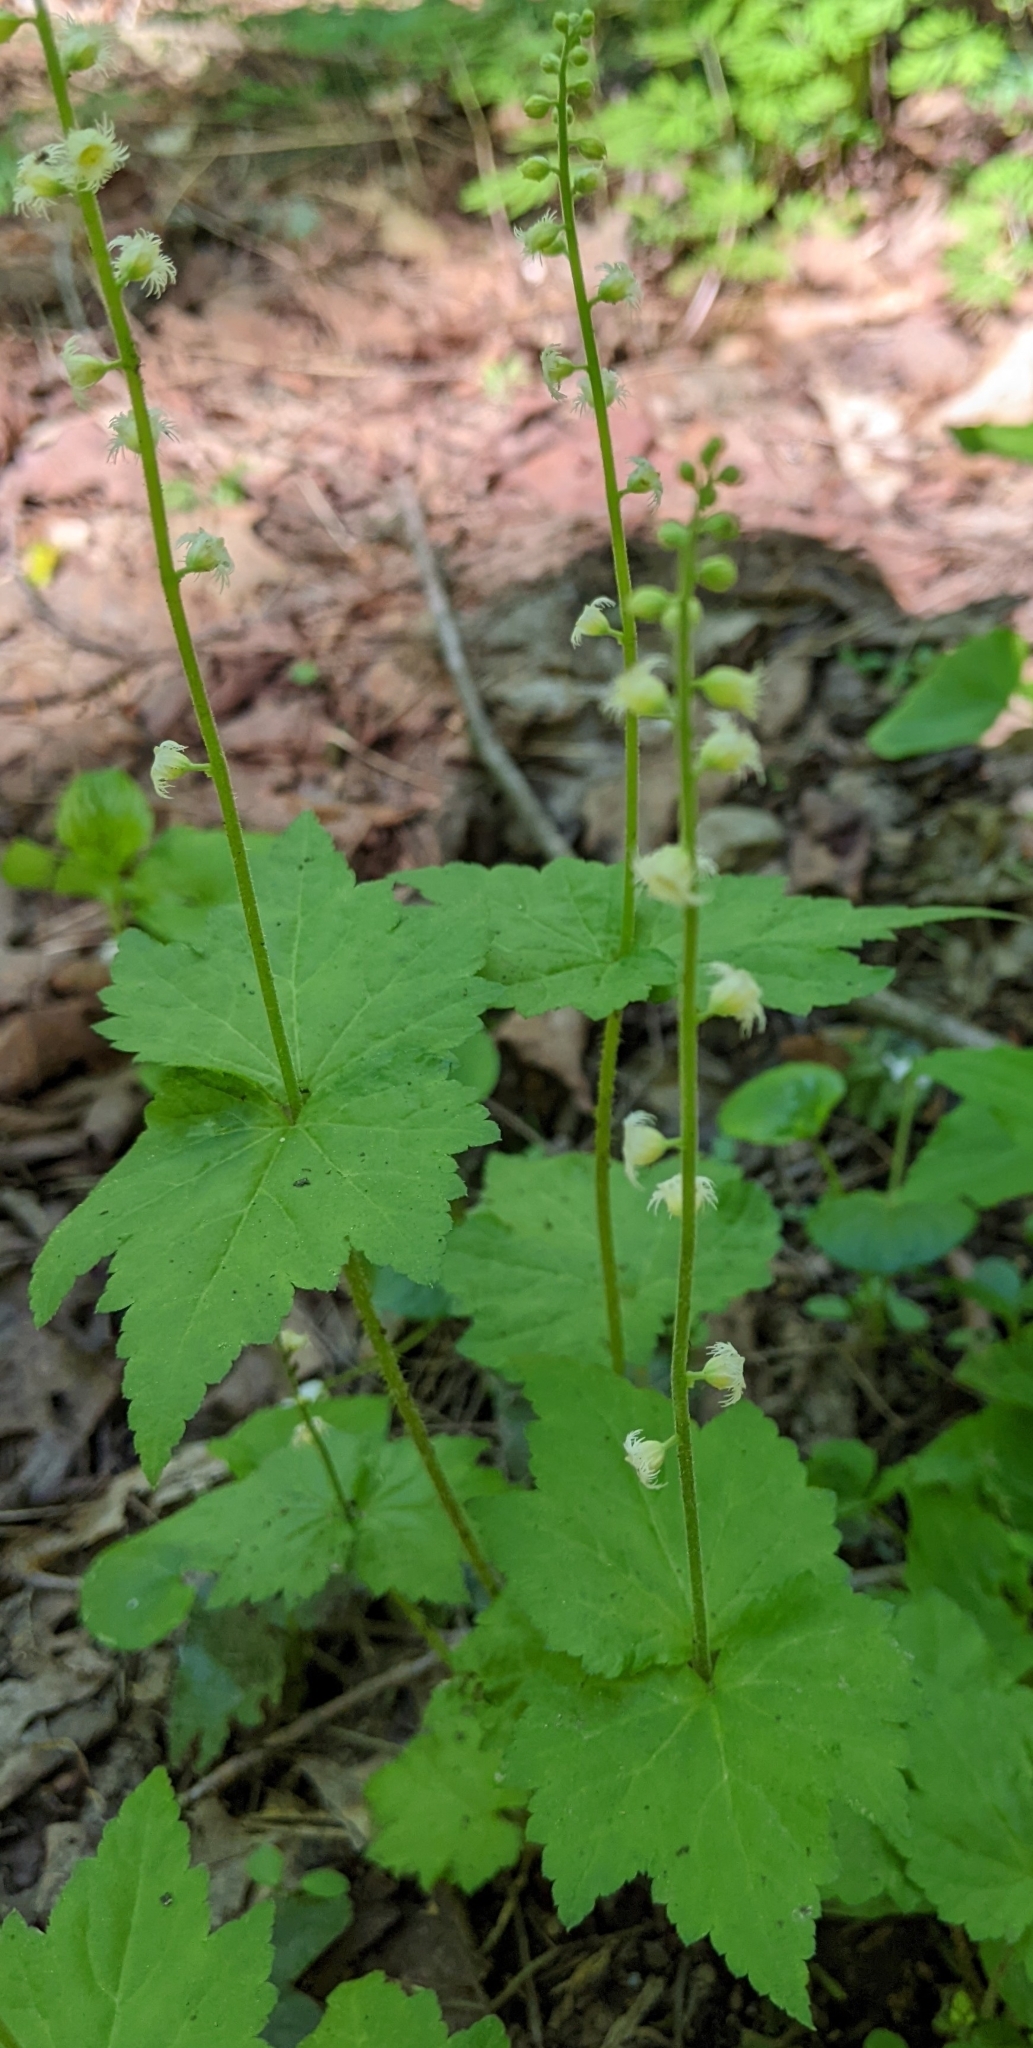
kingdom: Plantae
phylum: Tracheophyta
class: Magnoliopsida
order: Saxifragales
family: Saxifragaceae
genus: Mitella
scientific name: Mitella diphylla
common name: Coolwort
